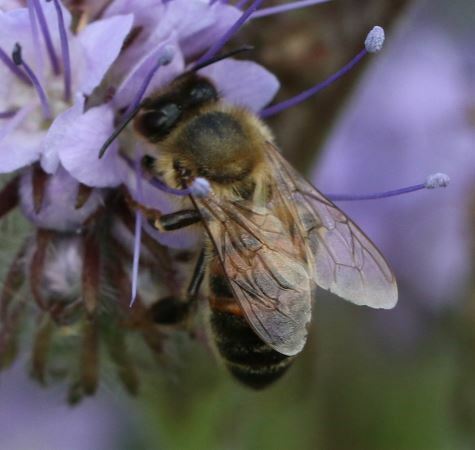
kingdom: Animalia
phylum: Arthropoda
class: Insecta
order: Hymenoptera
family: Apidae
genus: Apis
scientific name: Apis mellifera
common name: Honey bee
